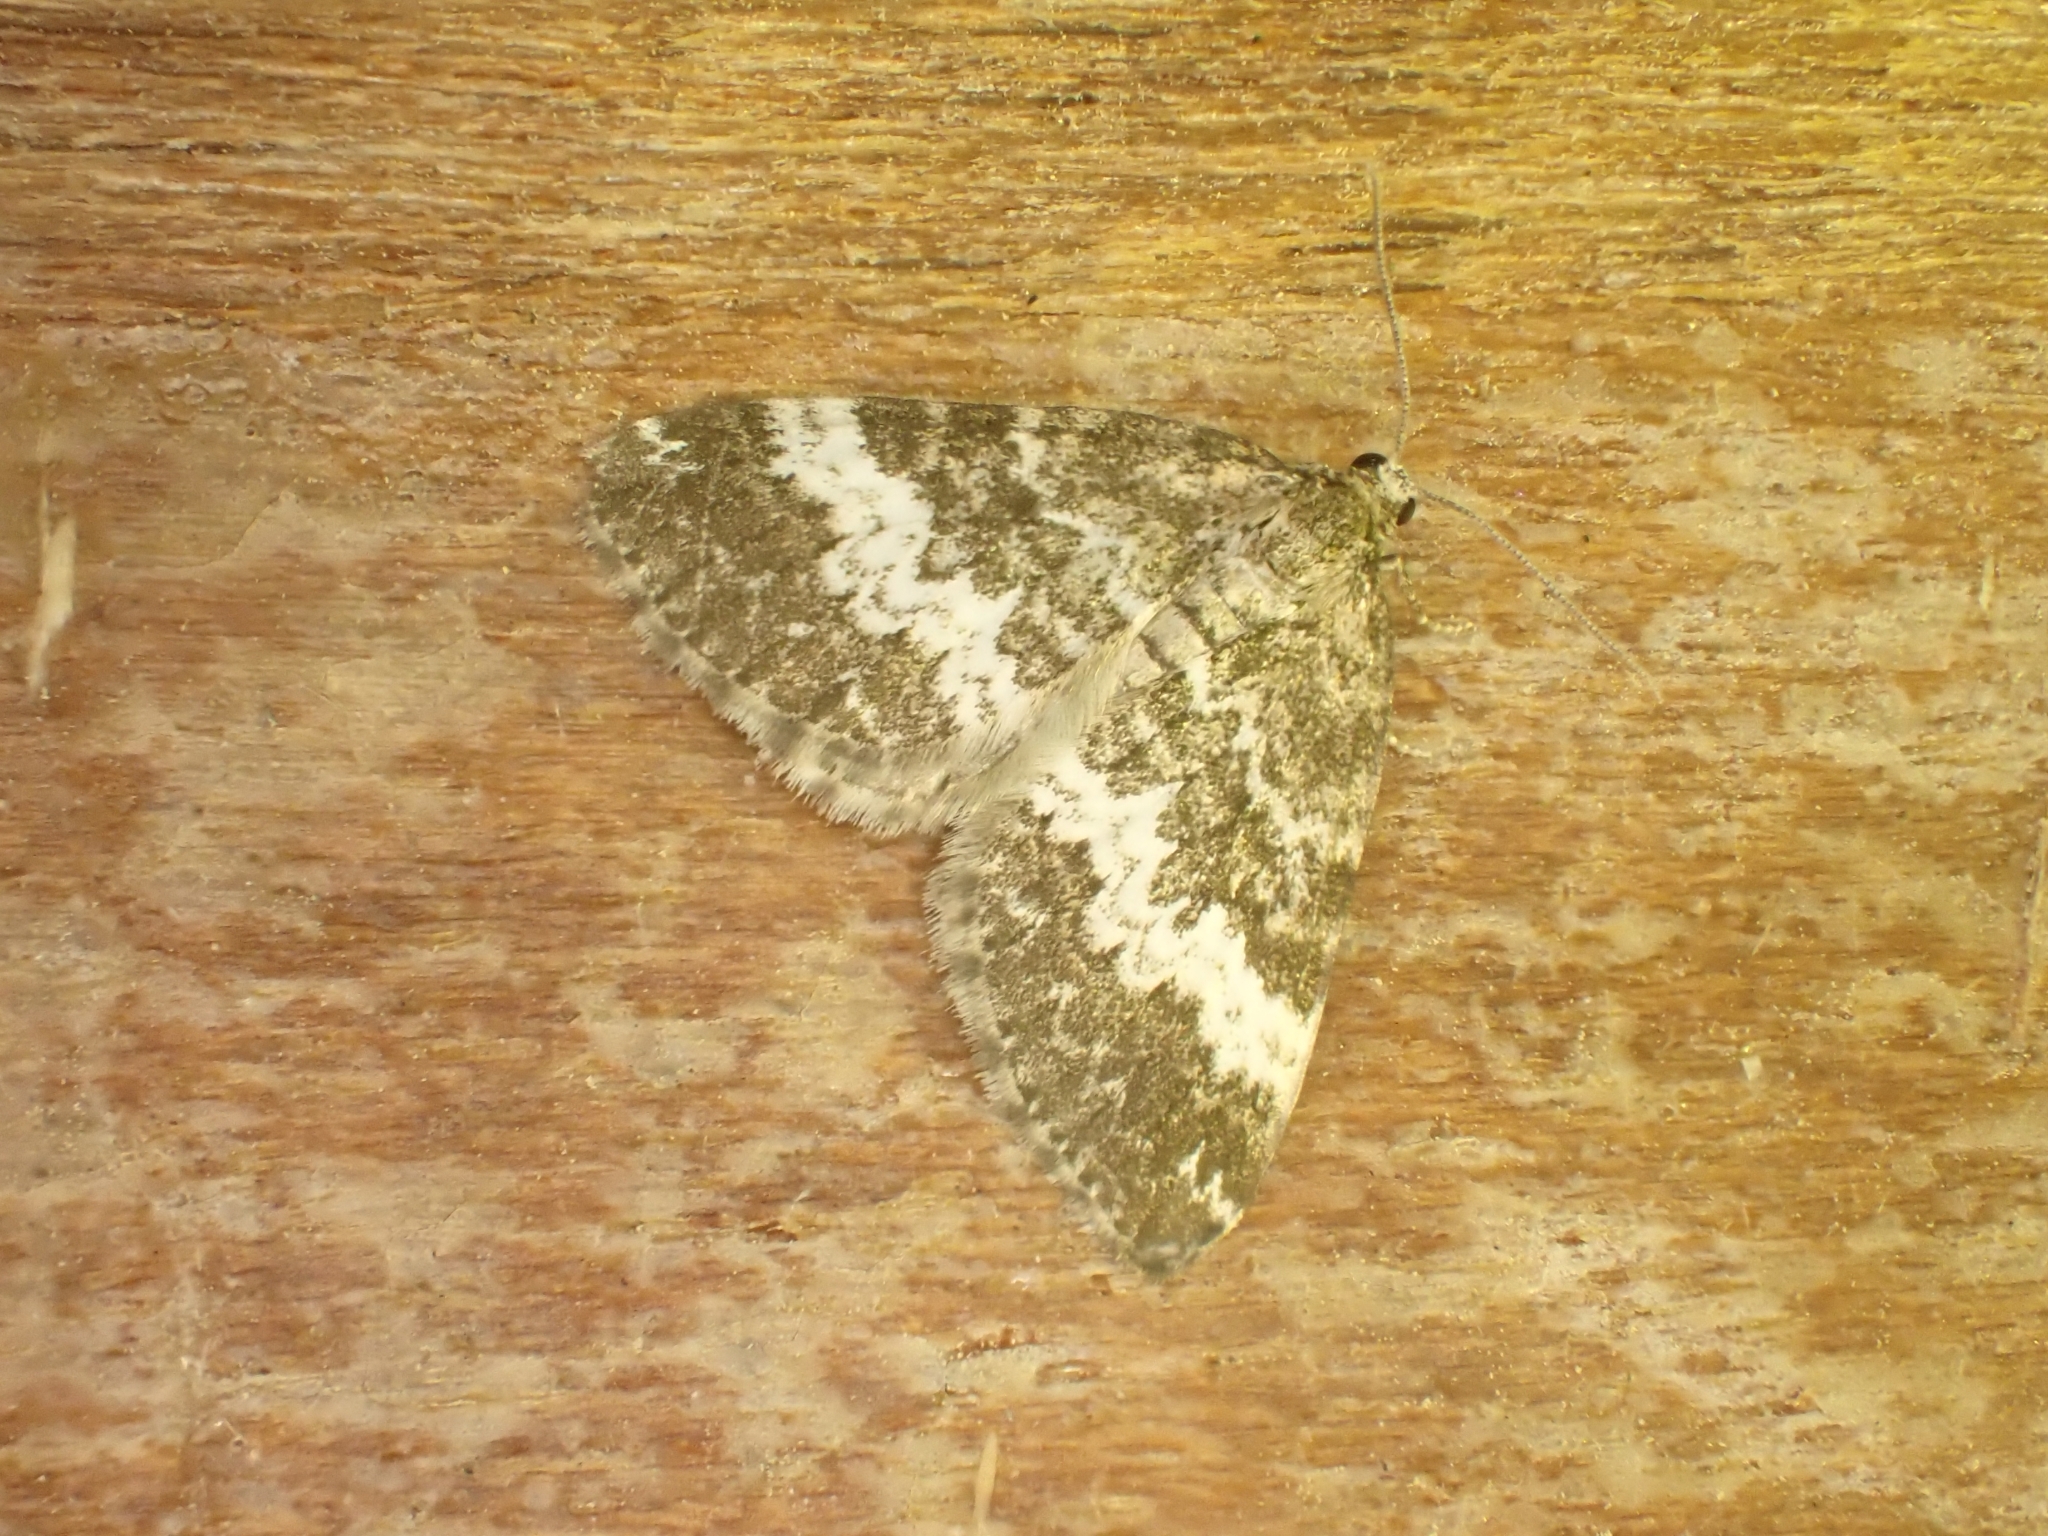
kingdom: Animalia
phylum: Arthropoda
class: Insecta
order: Lepidoptera
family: Geometridae
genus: Perizoma
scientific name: Perizoma affinitata
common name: Rivulet
